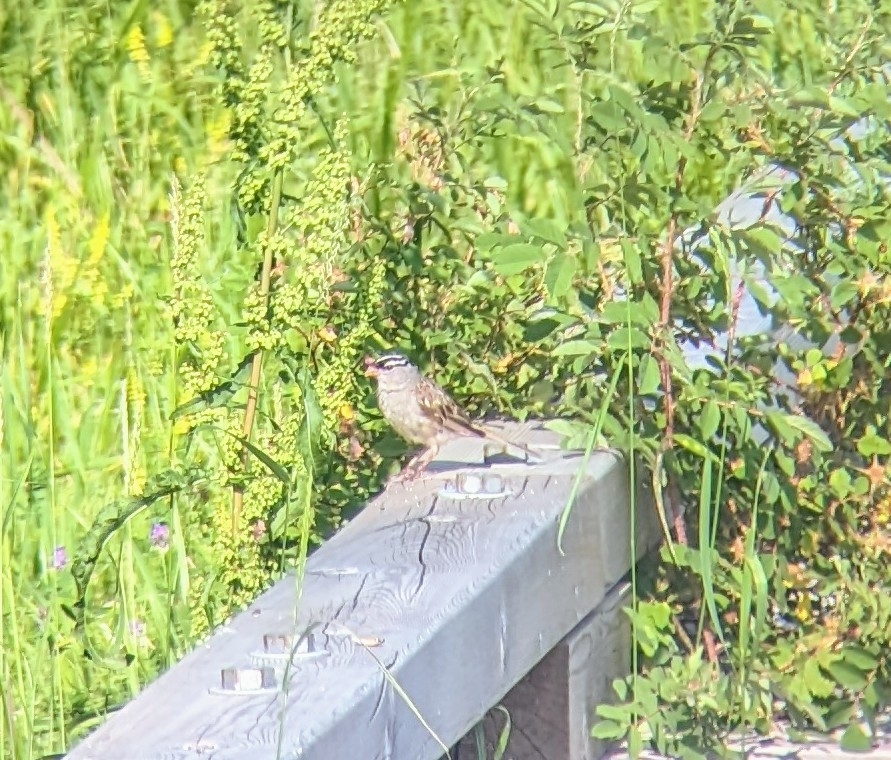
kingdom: Animalia
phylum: Chordata
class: Aves
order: Passeriformes
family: Passerellidae
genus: Zonotrichia
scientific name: Zonotrichia leucophrys
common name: White-crowned sparrow
